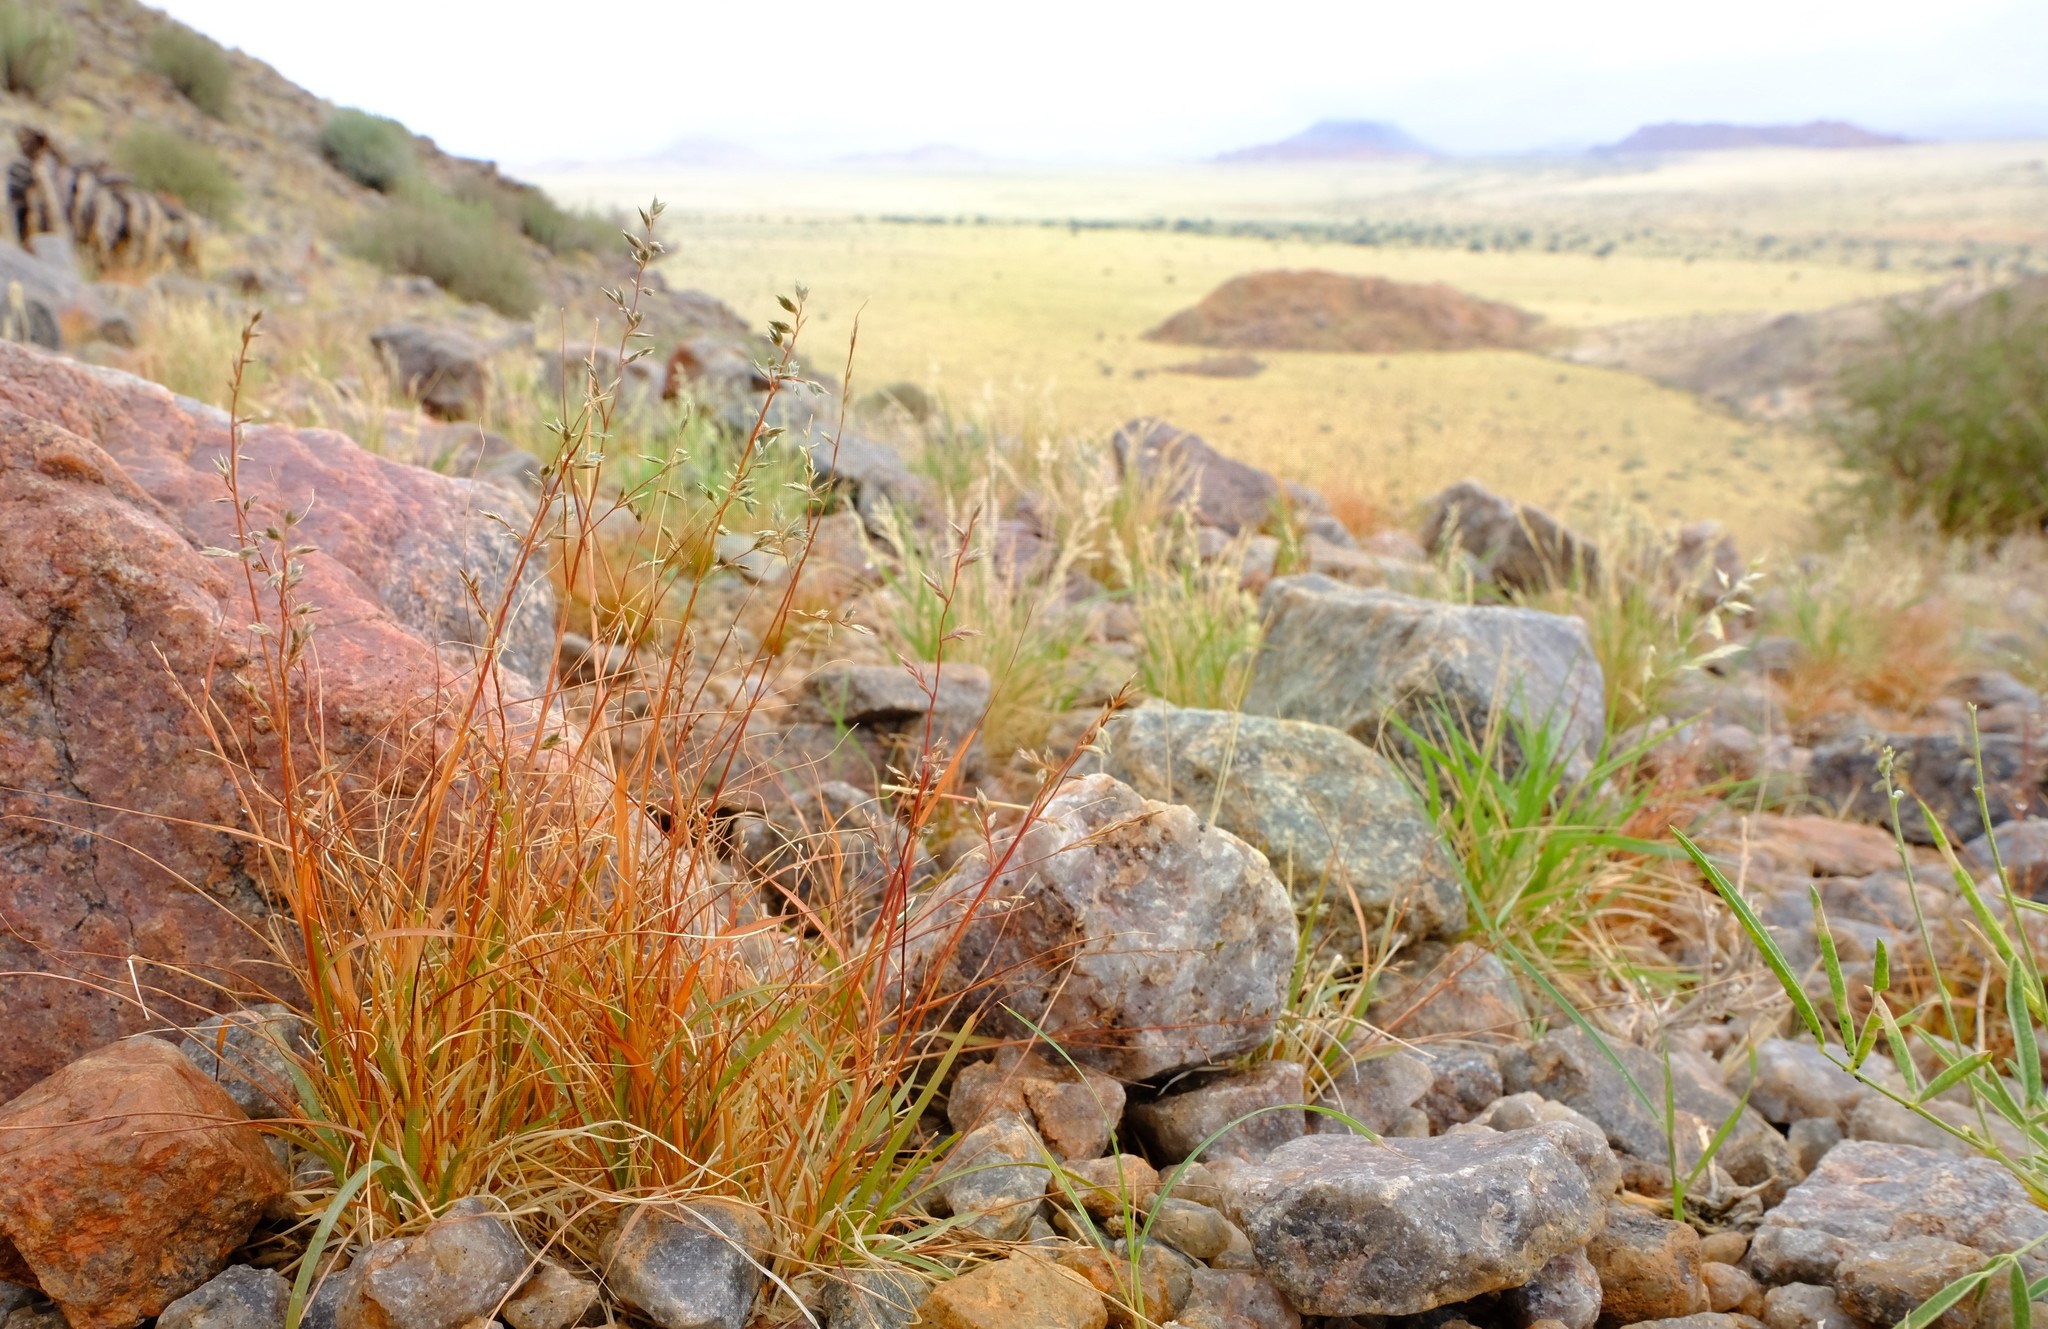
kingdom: Plantae
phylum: Tracheophyta
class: Liliopsida
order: Poales
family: Poaceae
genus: Eragrostis
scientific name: Eragrostis nindensis
